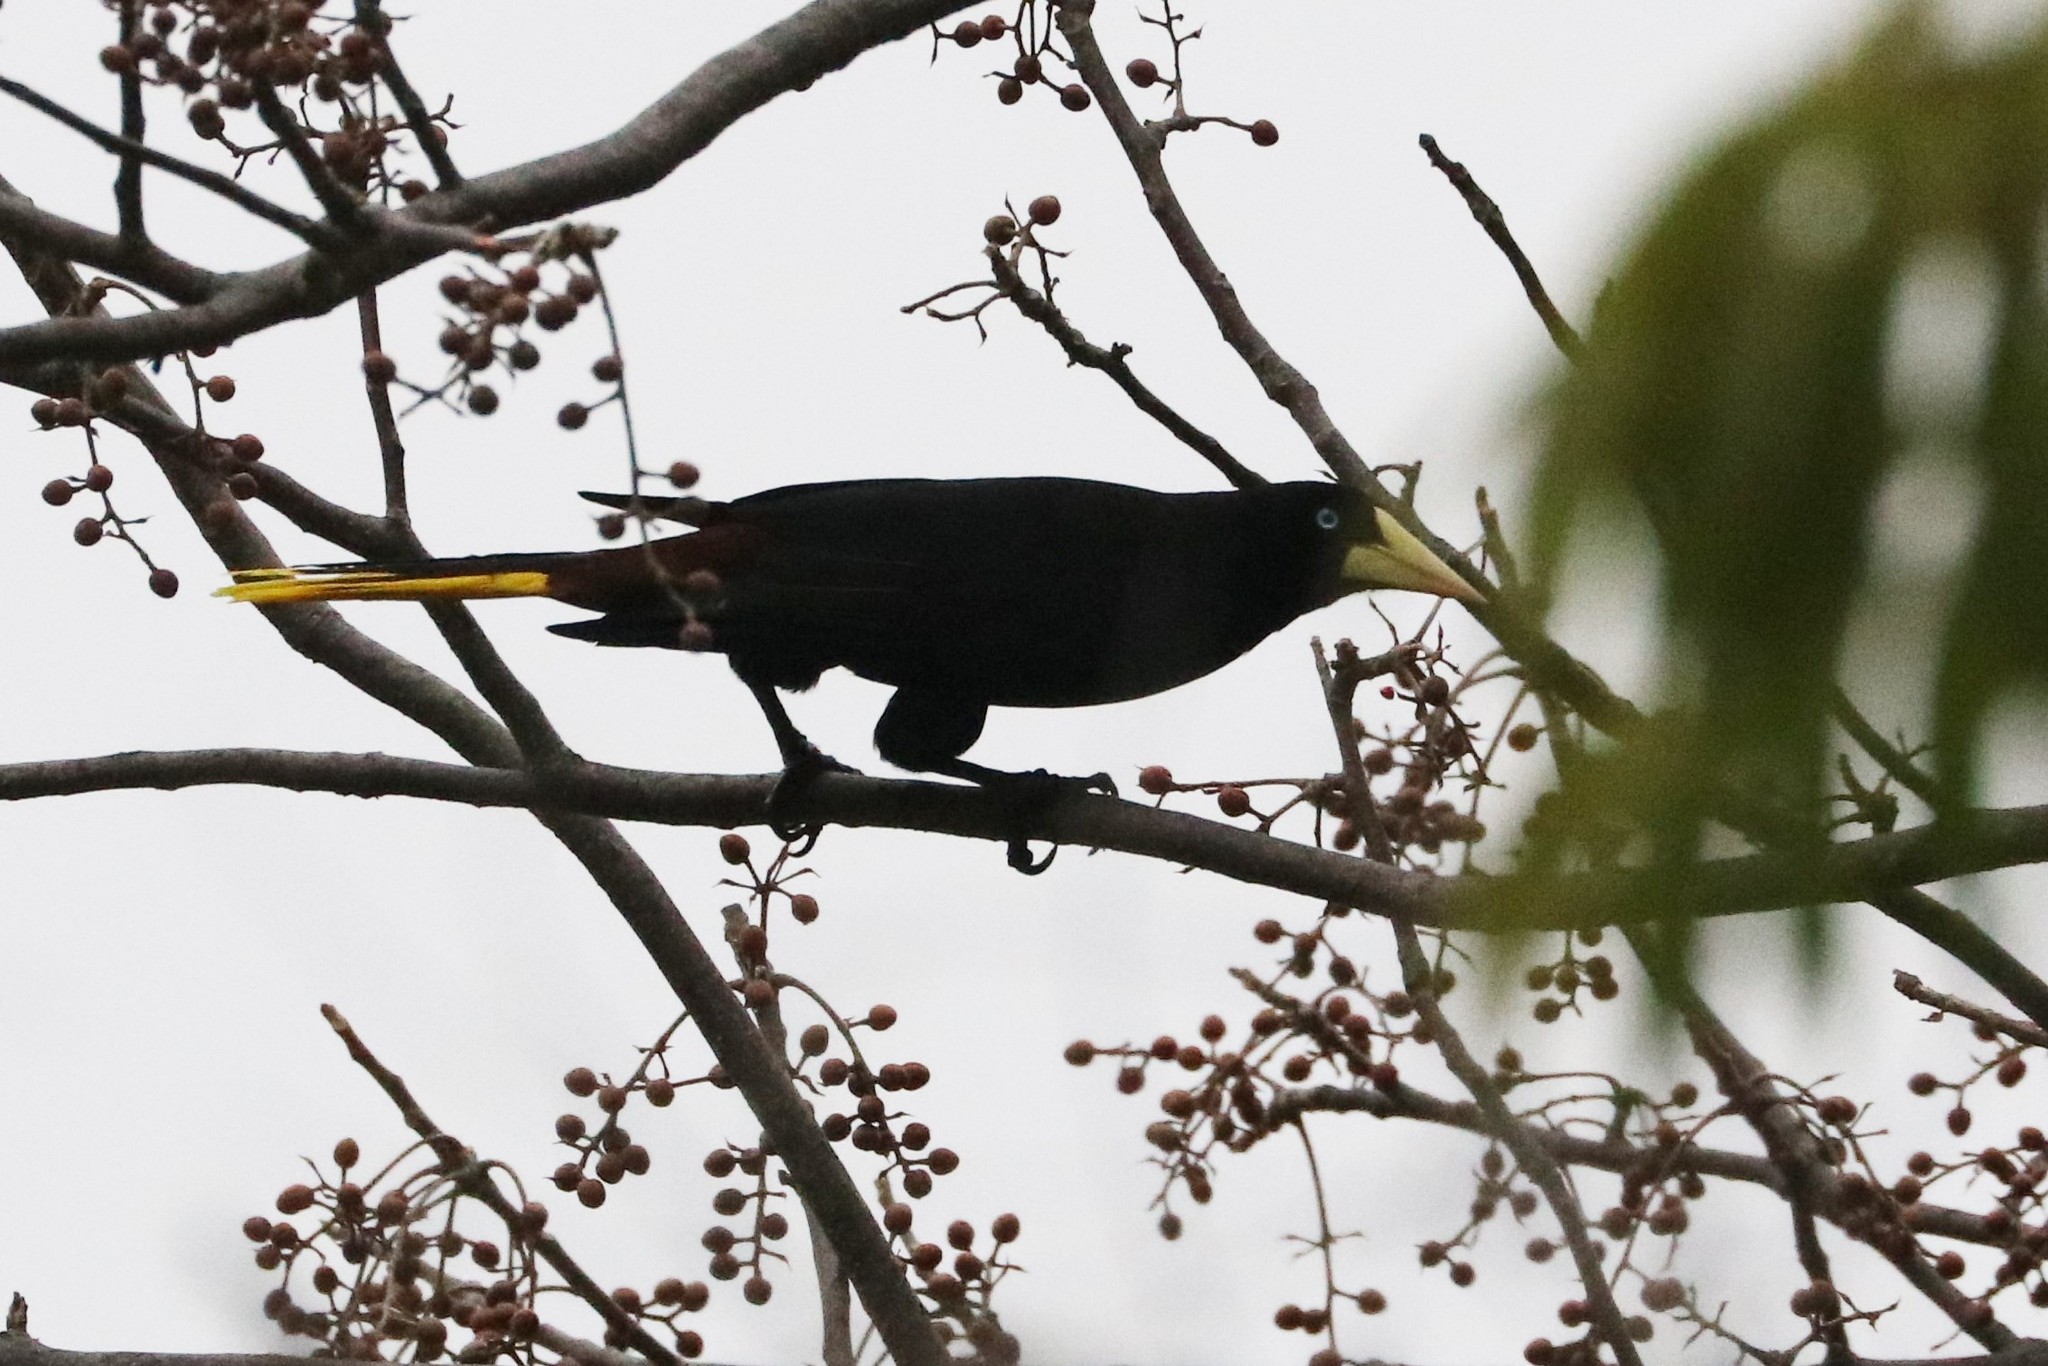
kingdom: Animalia
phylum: Chordata
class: Aves
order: Passeriformes
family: Icteridae
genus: Psarocolius
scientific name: Psarocolius decumanus
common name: Crested oropendola
